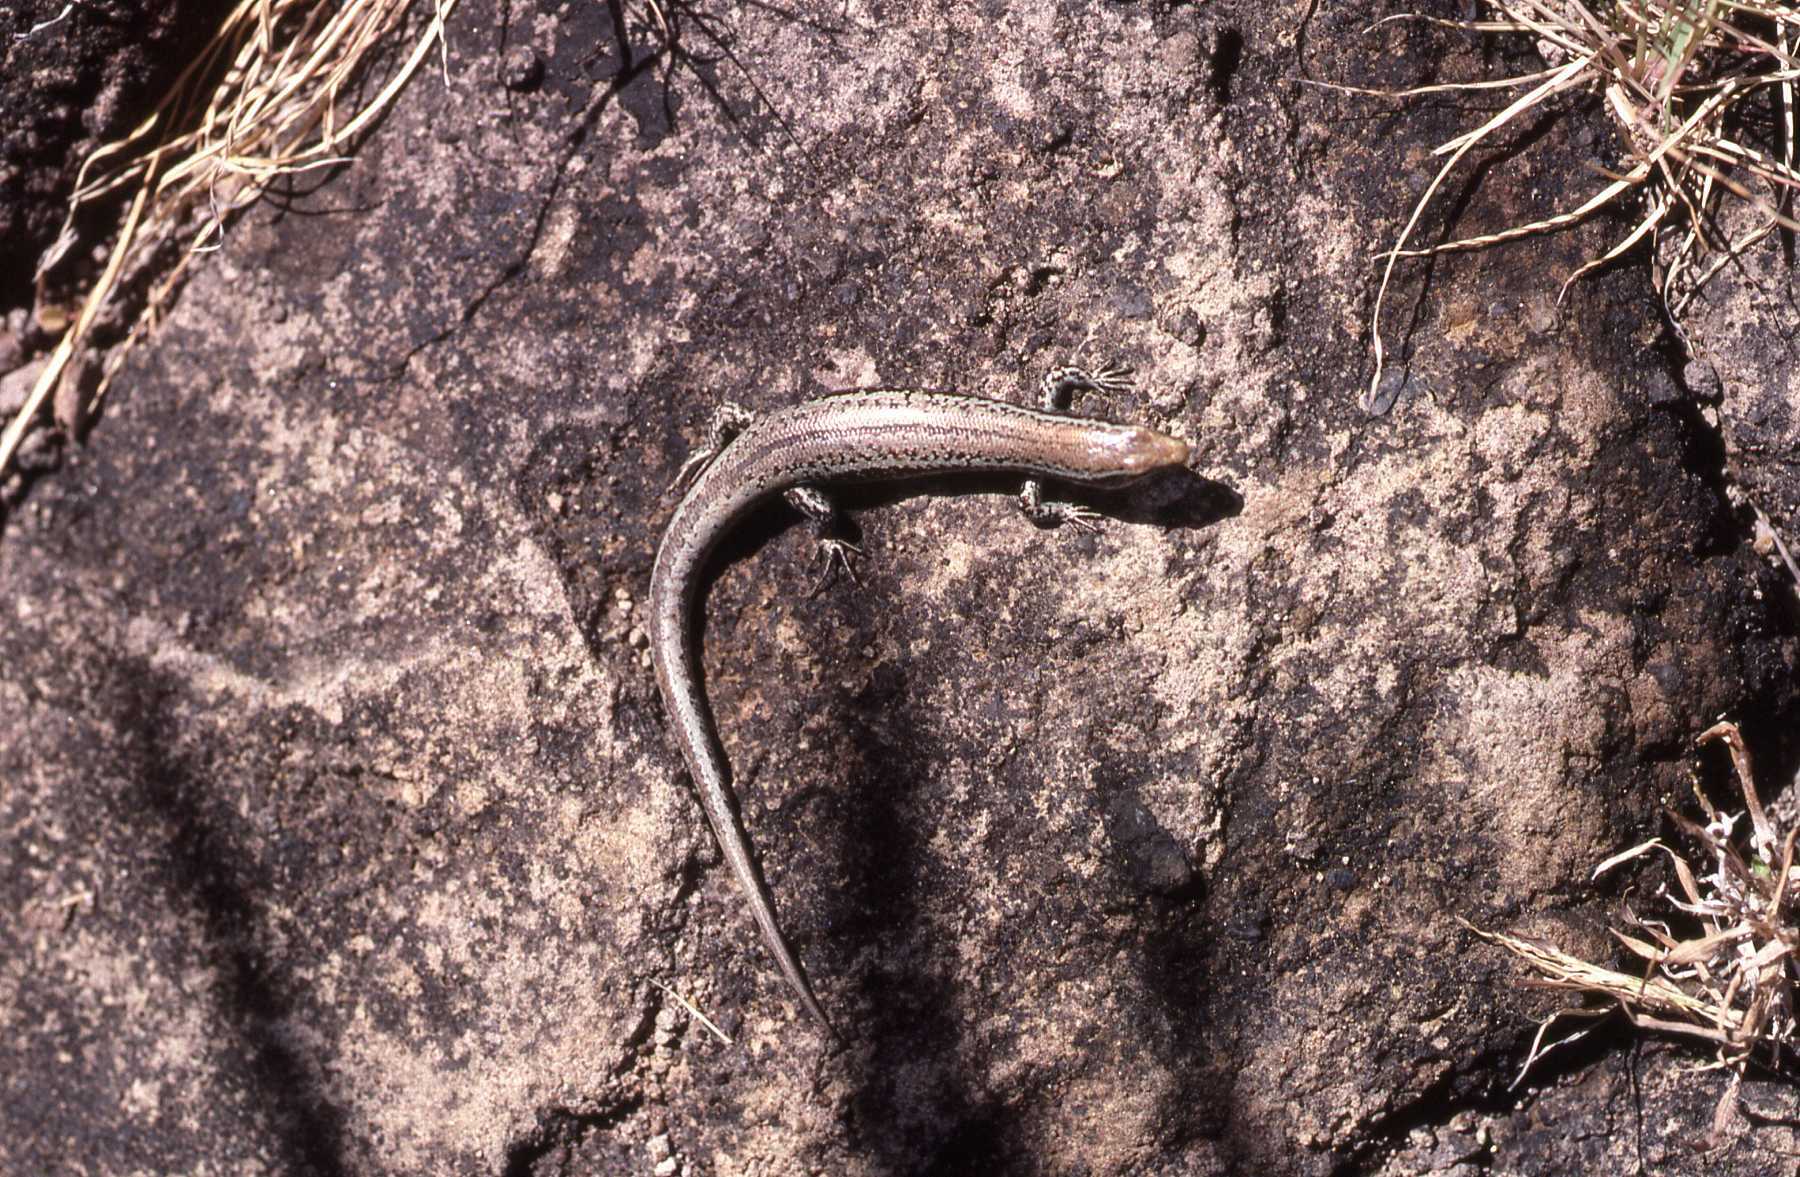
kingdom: Animalia
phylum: Chordata
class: Squamata
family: Scincidae
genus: Gongylomorphus
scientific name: Gongylomorphus bojerii
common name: Bojer's skink
